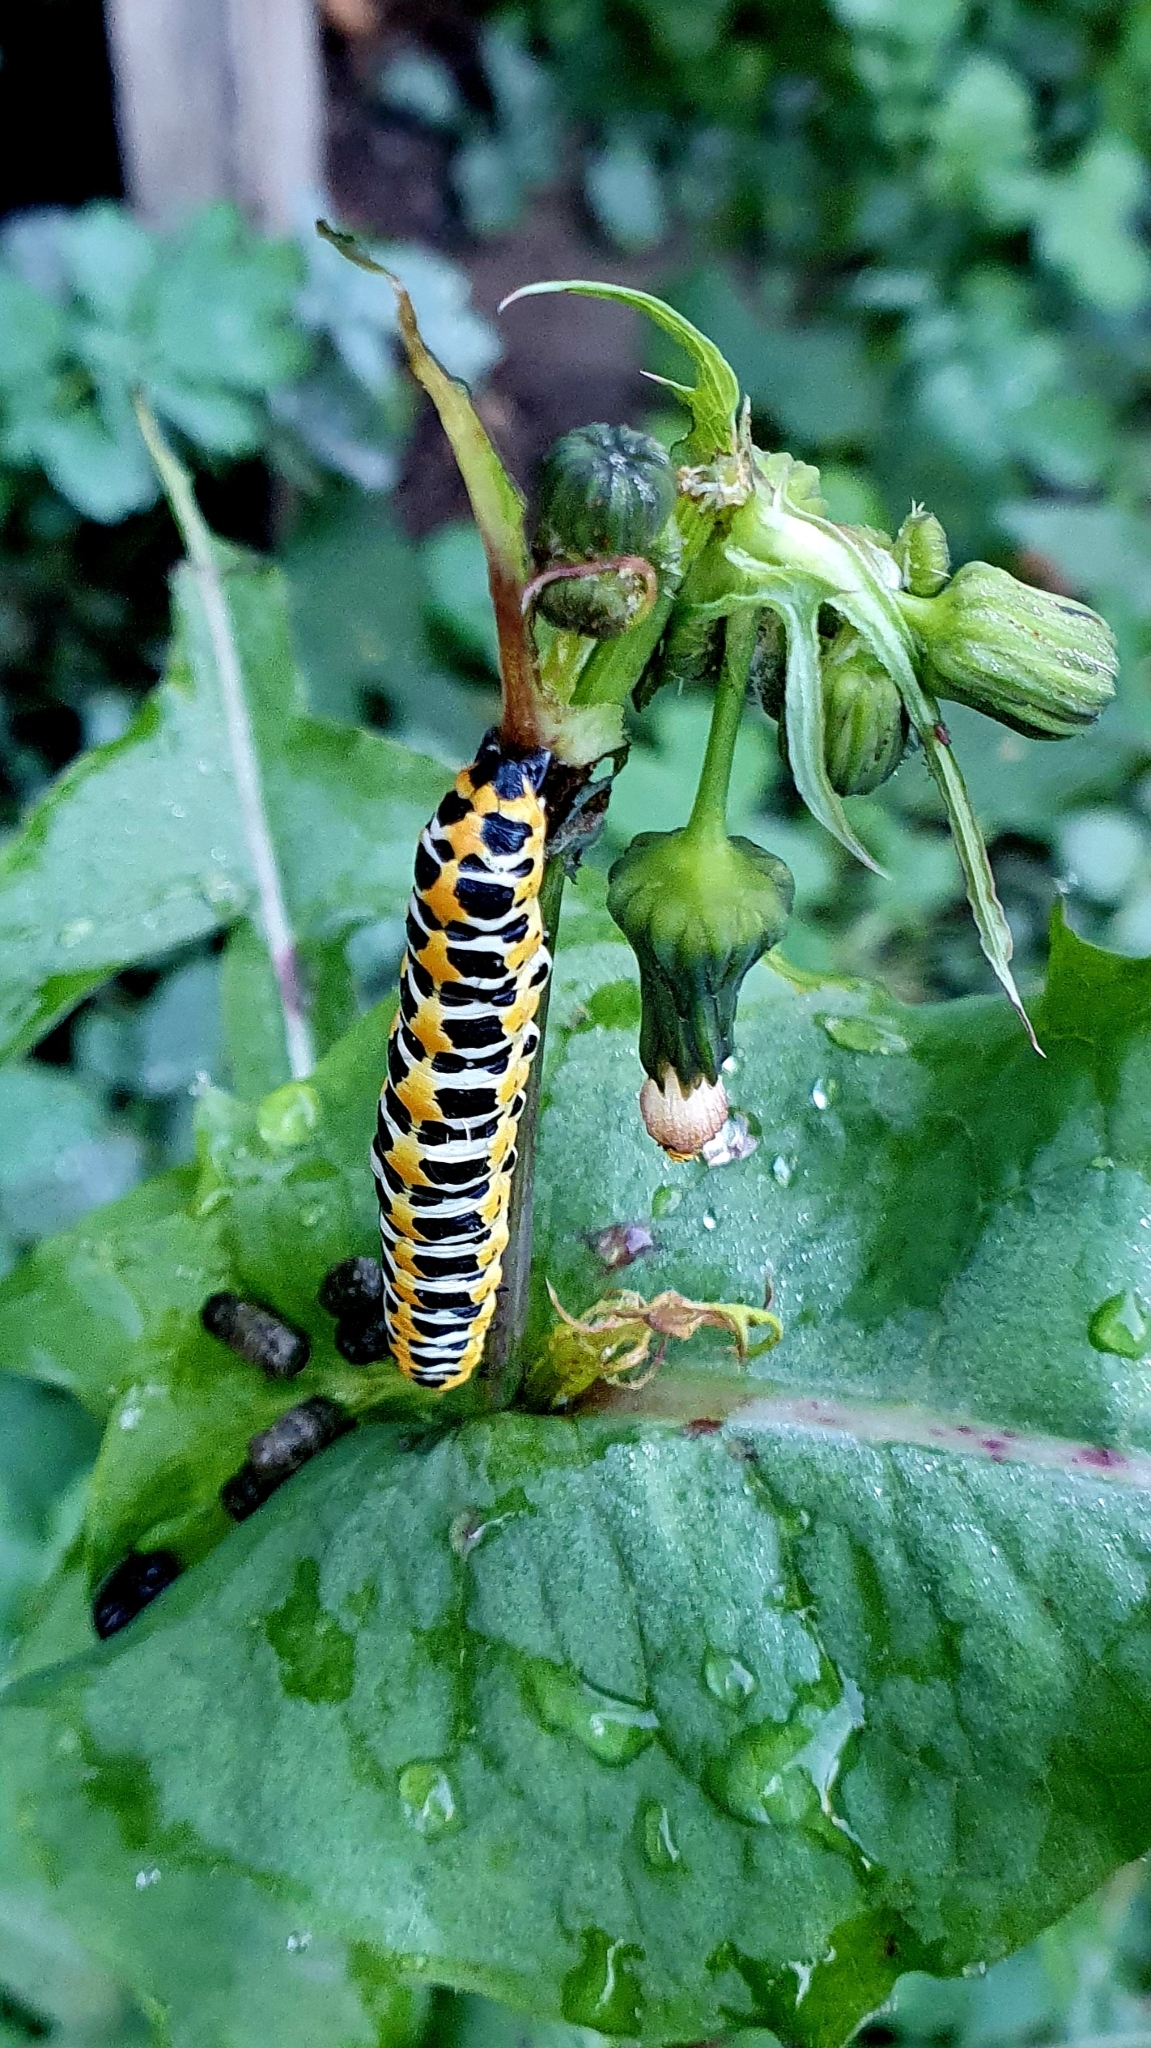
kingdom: Animalia
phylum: Arthropoda
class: Insecta
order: Lepidoptera
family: Noctuidae
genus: Cucullia
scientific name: Cucullia pustulata
